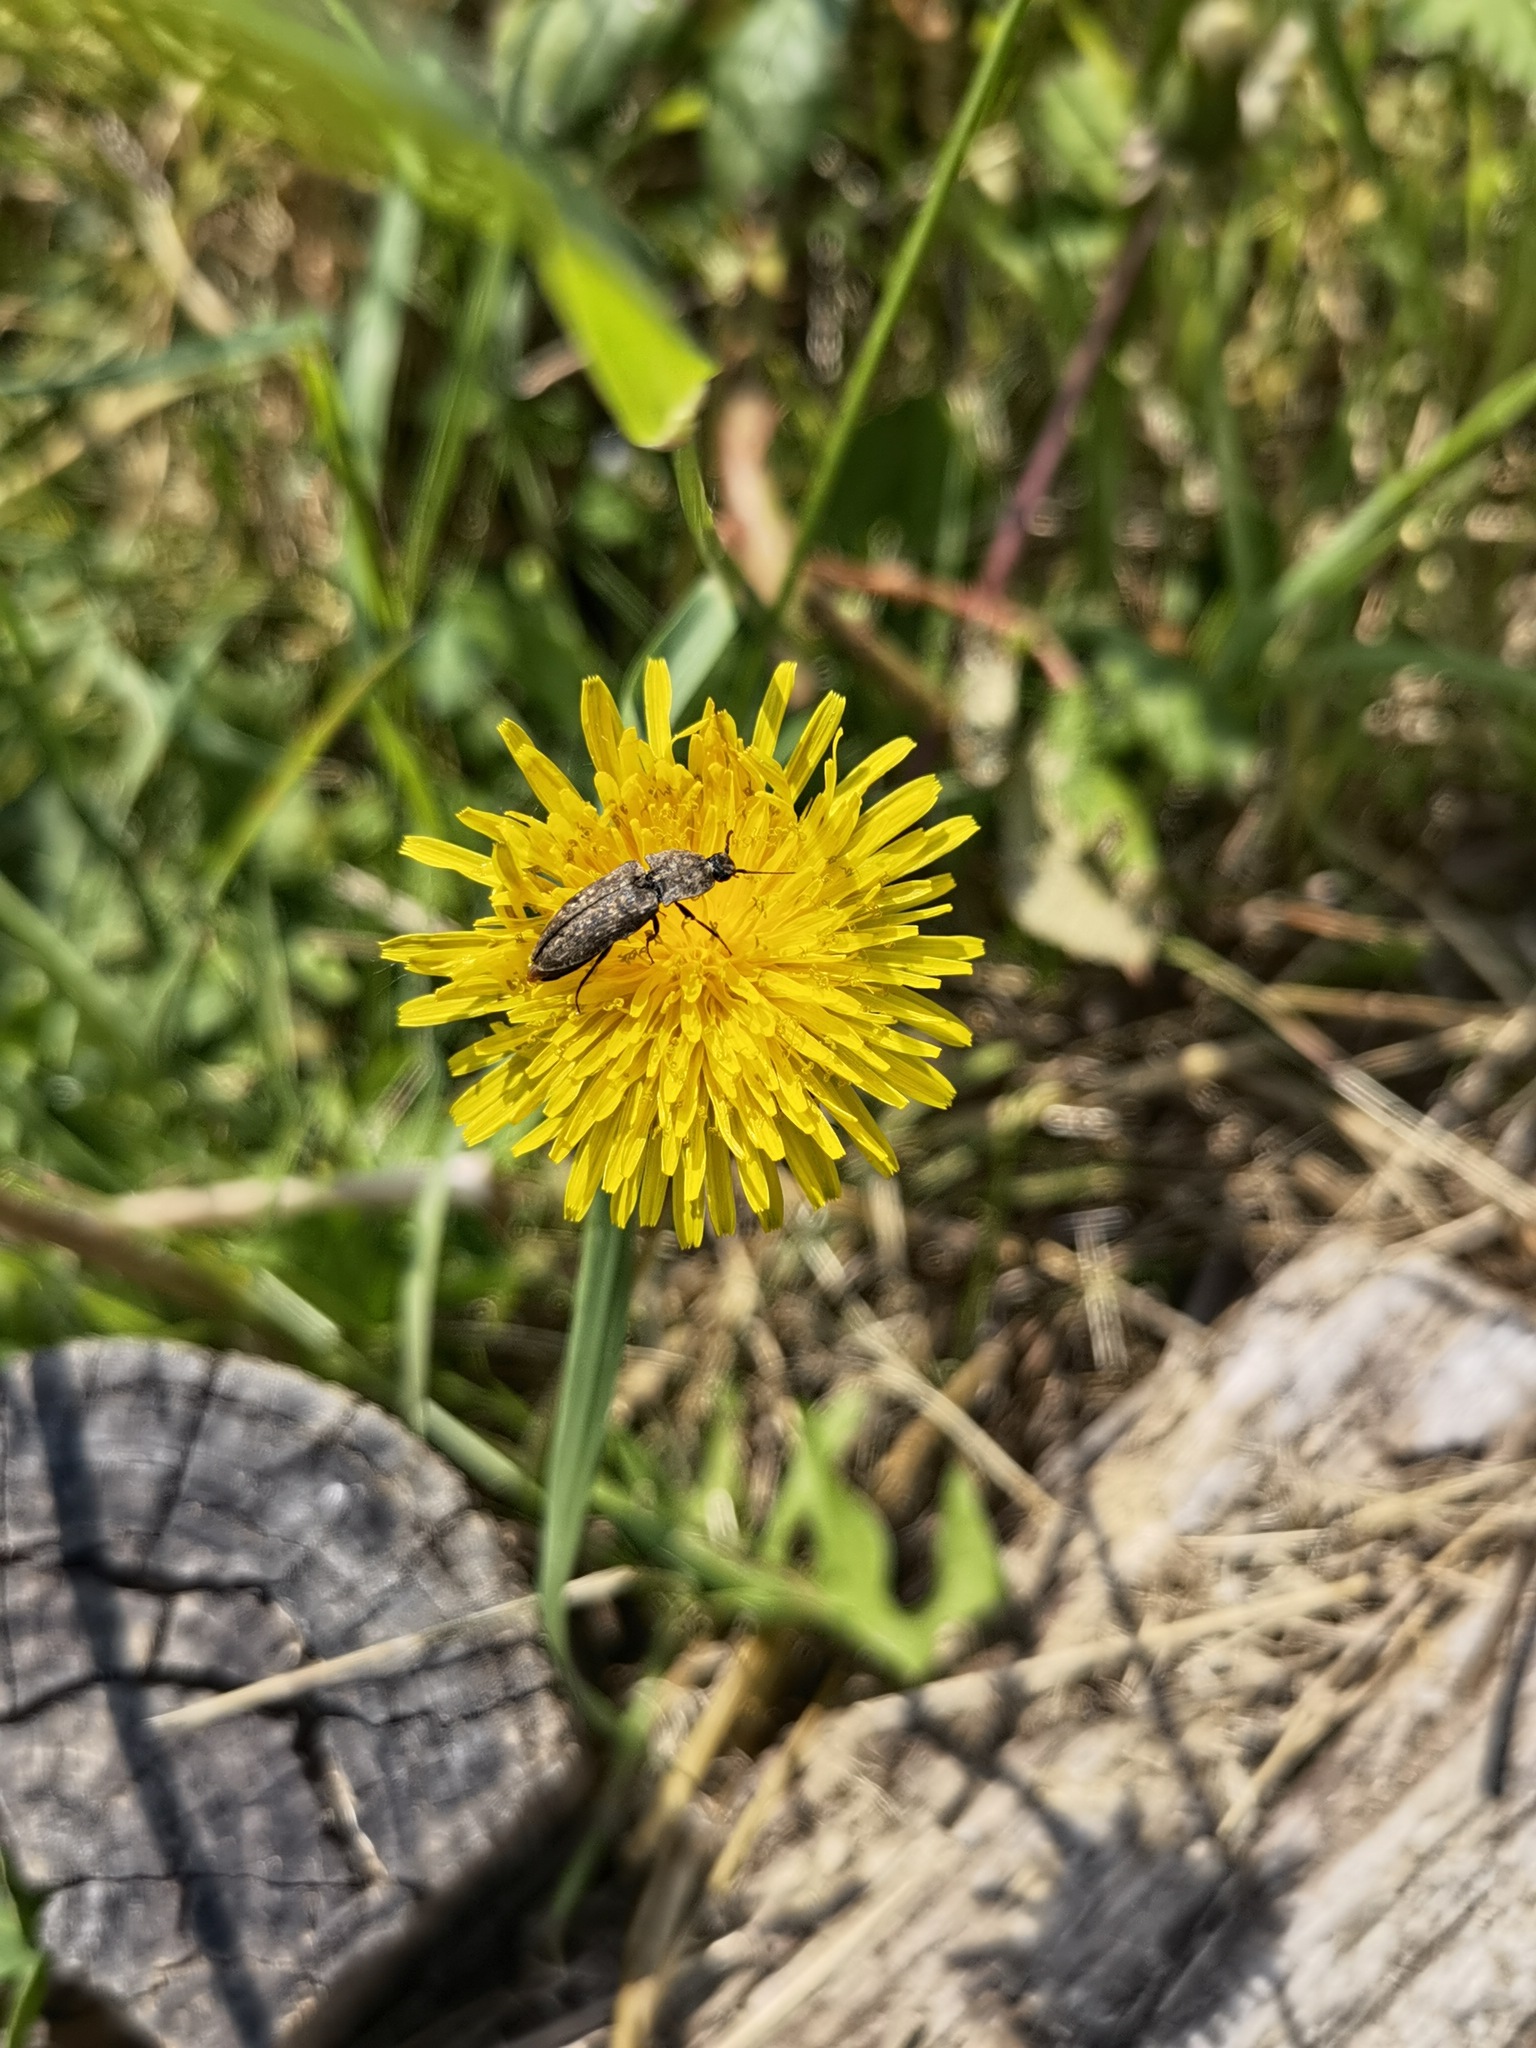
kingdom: Animalia
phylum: Arthropoda
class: Insecta
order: Coleoptera
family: Elateridae
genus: Agrypnus
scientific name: Agrypnus murinus
